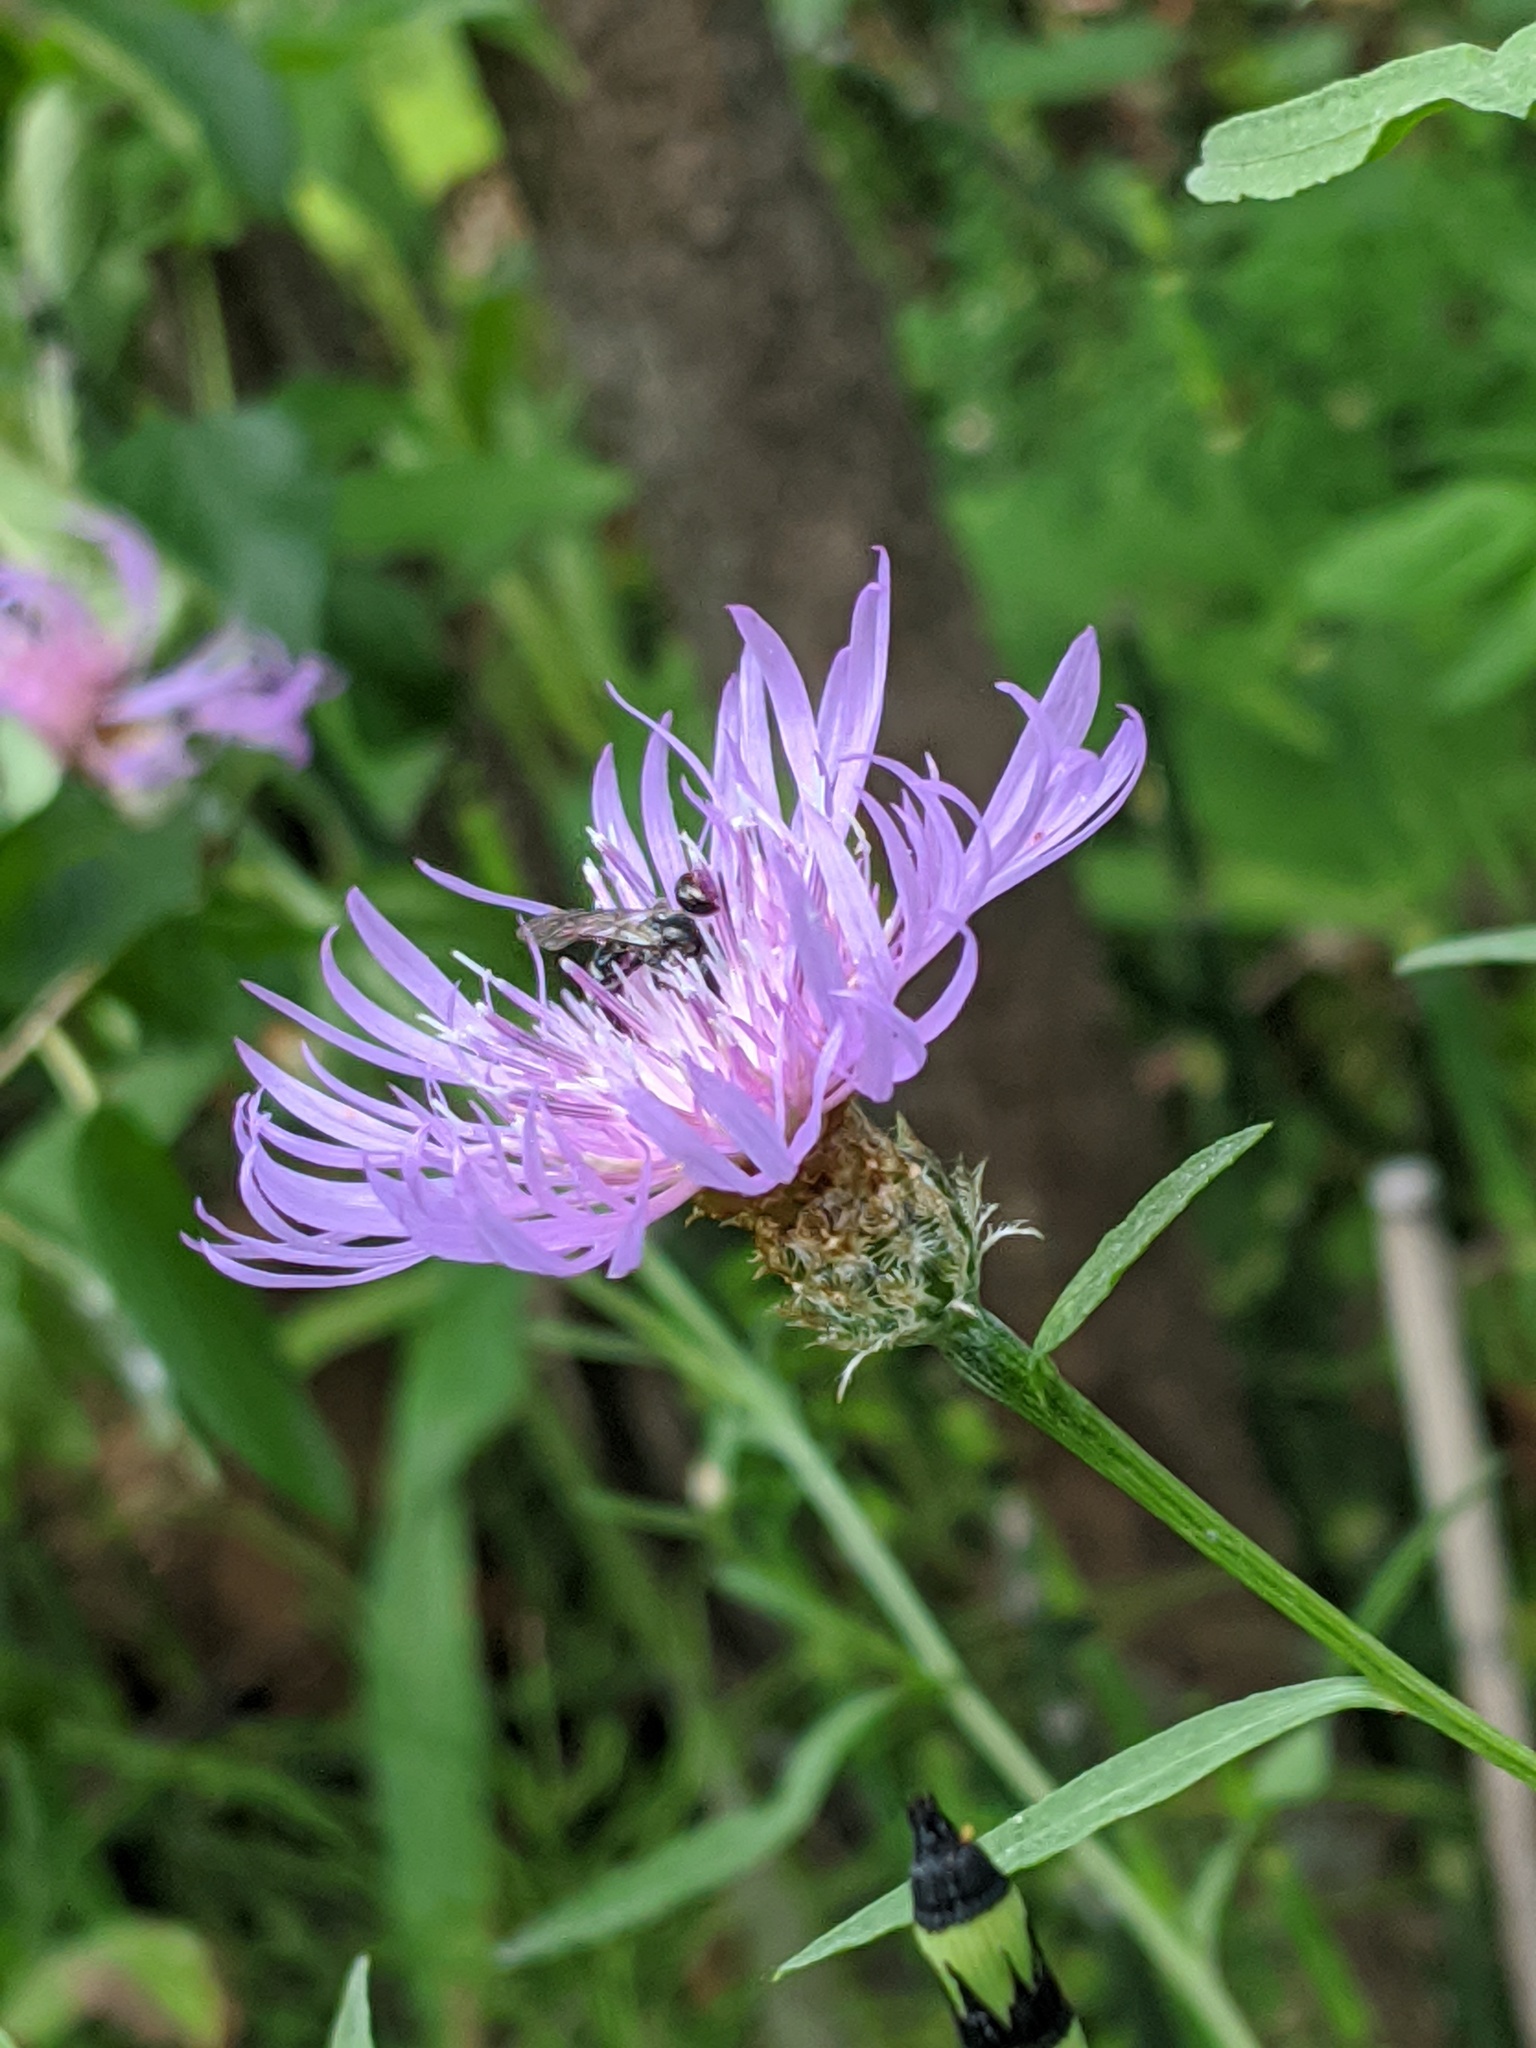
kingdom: Plantae
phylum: Tracheophyta
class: Magnoliopsida
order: Asterales
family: Asteraceae
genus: Centaurea
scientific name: Centaurea jacea
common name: Brown knapweed
